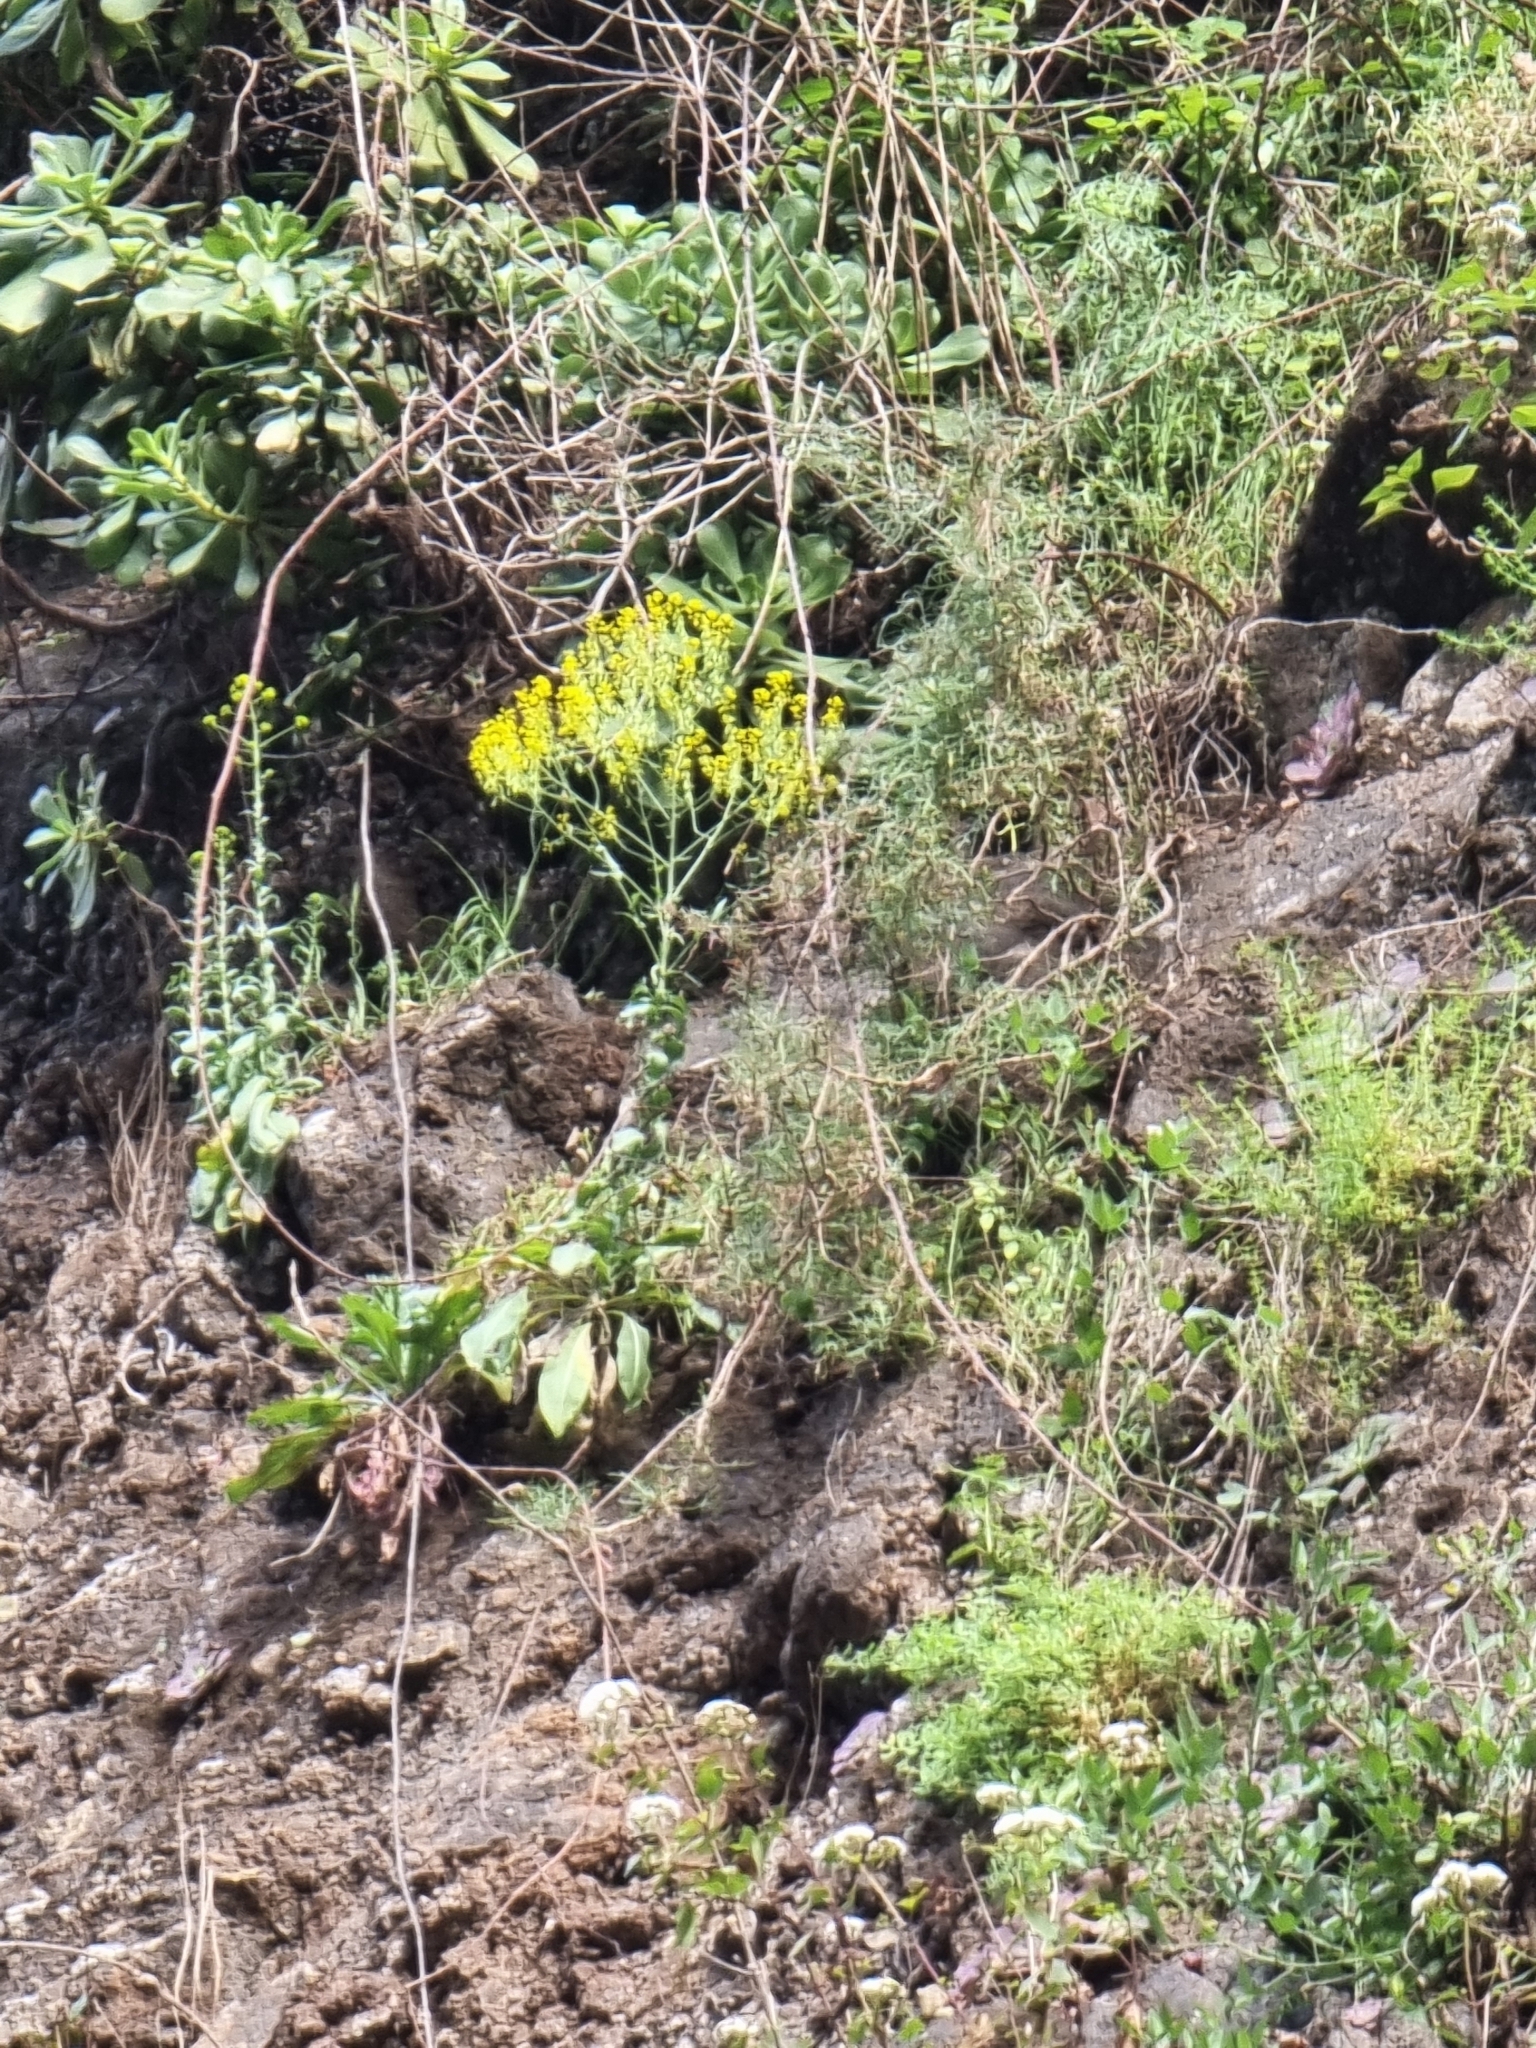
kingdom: Plantae
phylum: Tracheophyta
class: Magnoliopsida
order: Brassicales
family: Brassicaceae
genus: Isatis
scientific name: Isatis tinctoria
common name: Woad
